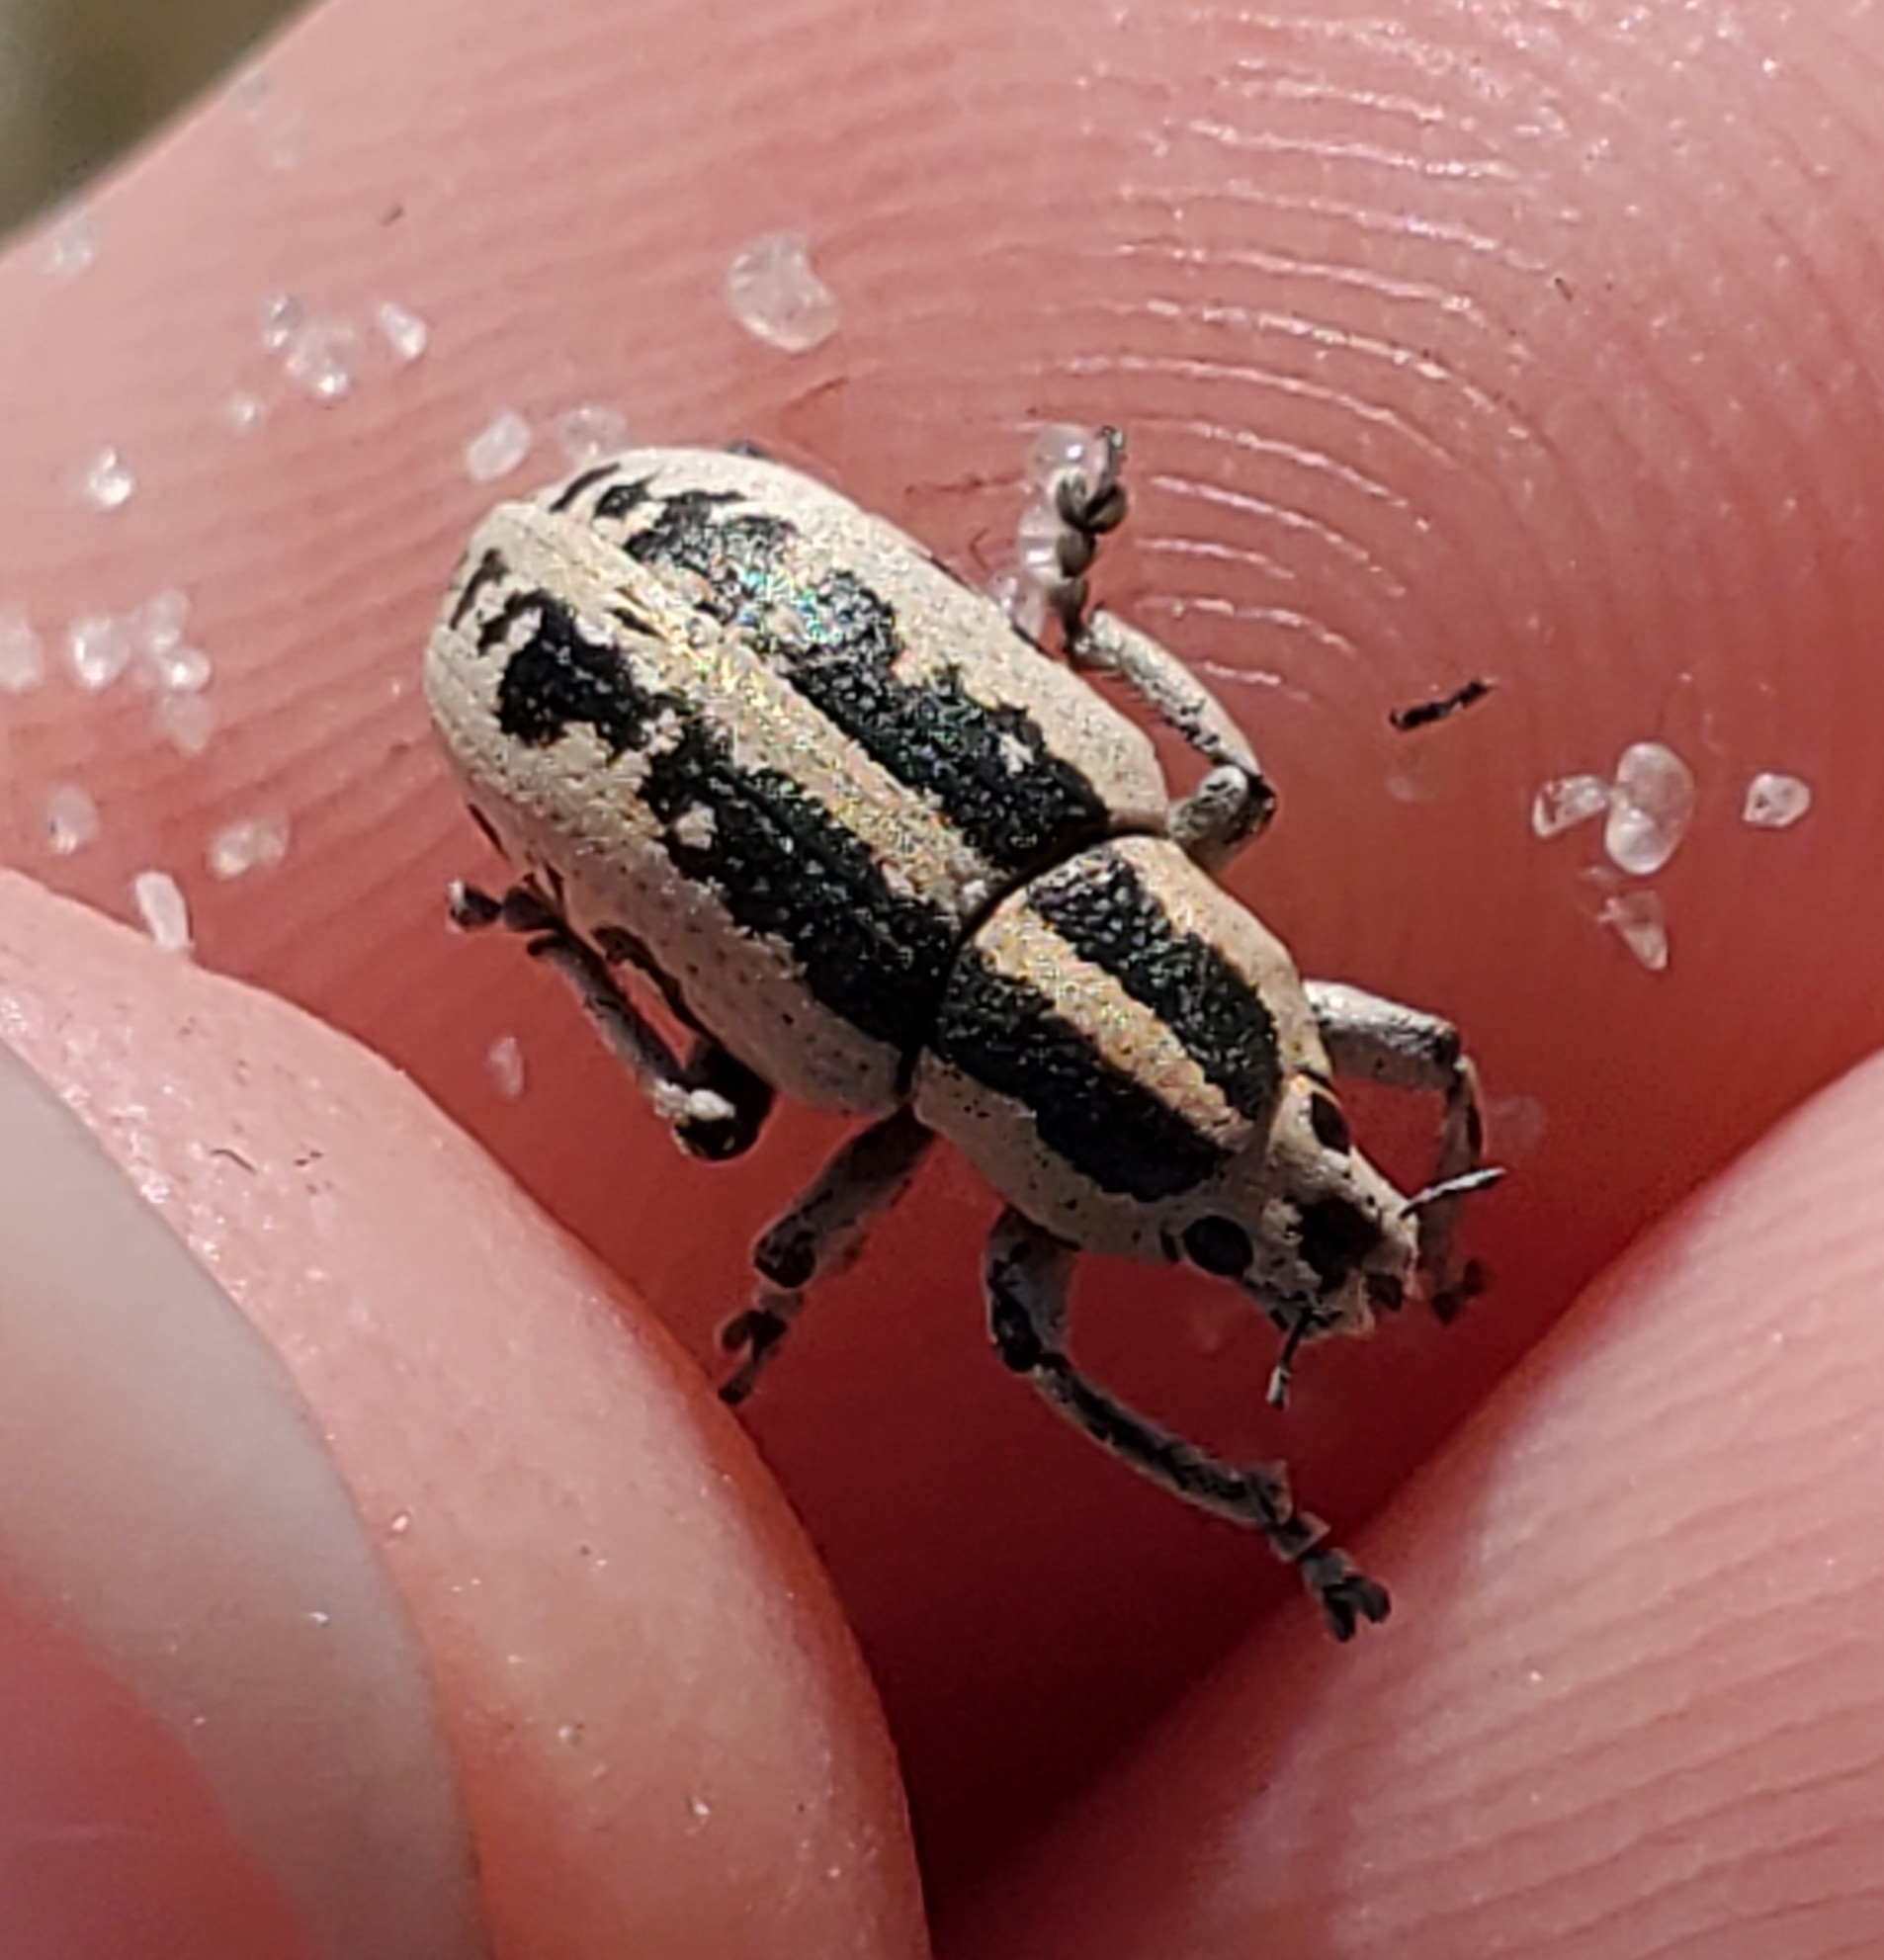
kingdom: Animalia
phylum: Arthropoda
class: Insecta
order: Coleoptera
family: Curculionidae
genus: Eudiagogus
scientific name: Eudiagogus rosenschoeldi
